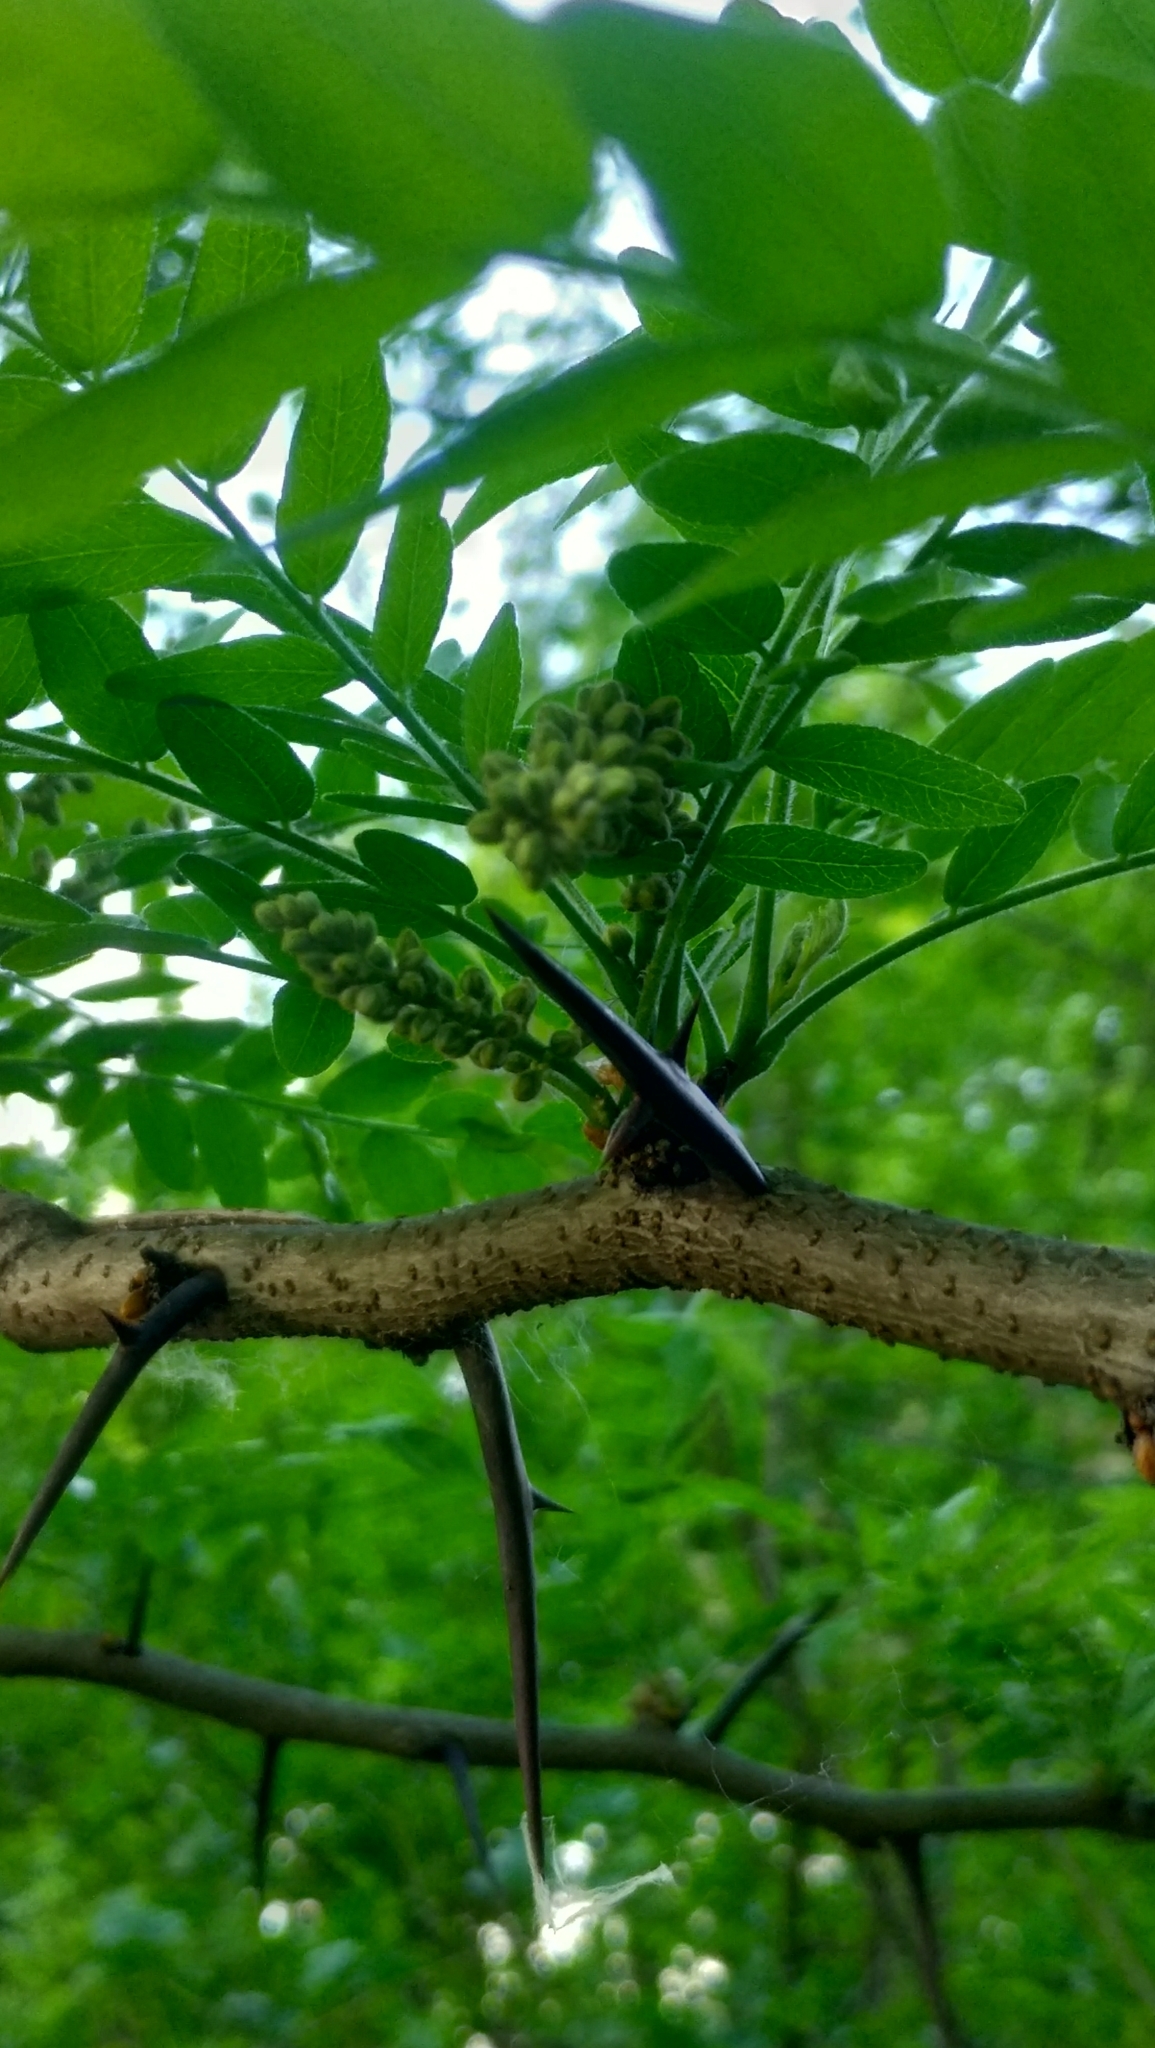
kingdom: Plantae
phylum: Tracheophyta
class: Magnoliopsida
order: Fabales
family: Fabaceae
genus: Gleditsia
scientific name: Gleditsia triacanthos
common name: Common honeylocust
